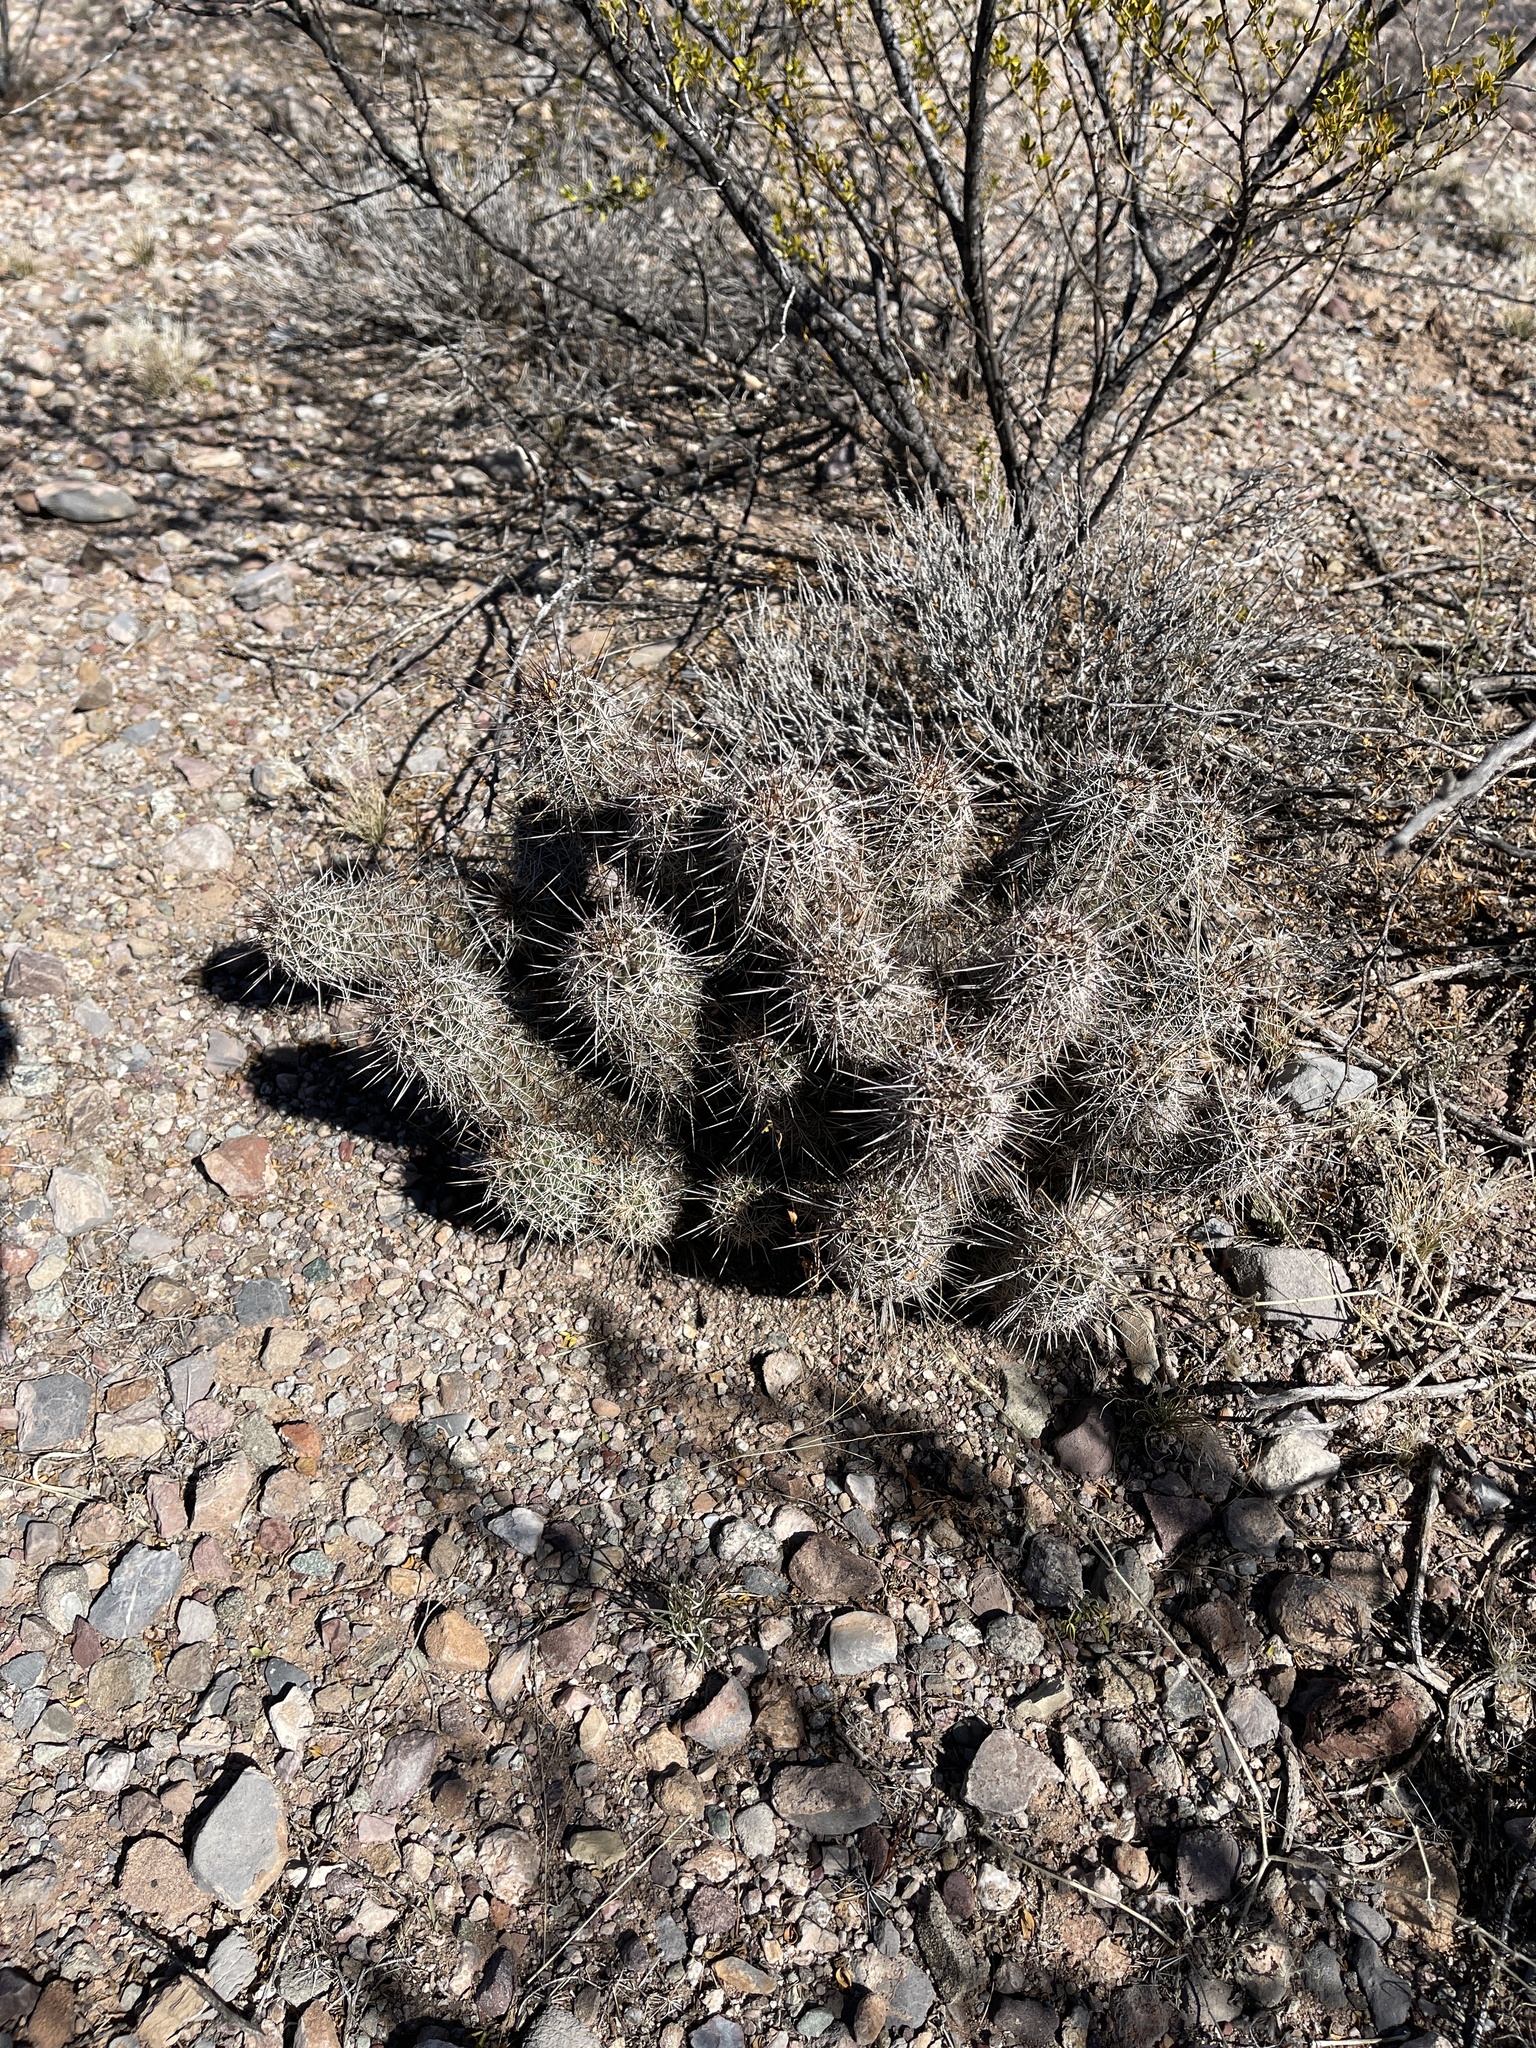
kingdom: Plantae
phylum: Tracheophyta
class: Magnoliopsida
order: Caryophyllales
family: Cactaceae
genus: Echinocereus
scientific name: Echinocereus fasciculatus
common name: Bundle hedgehog
